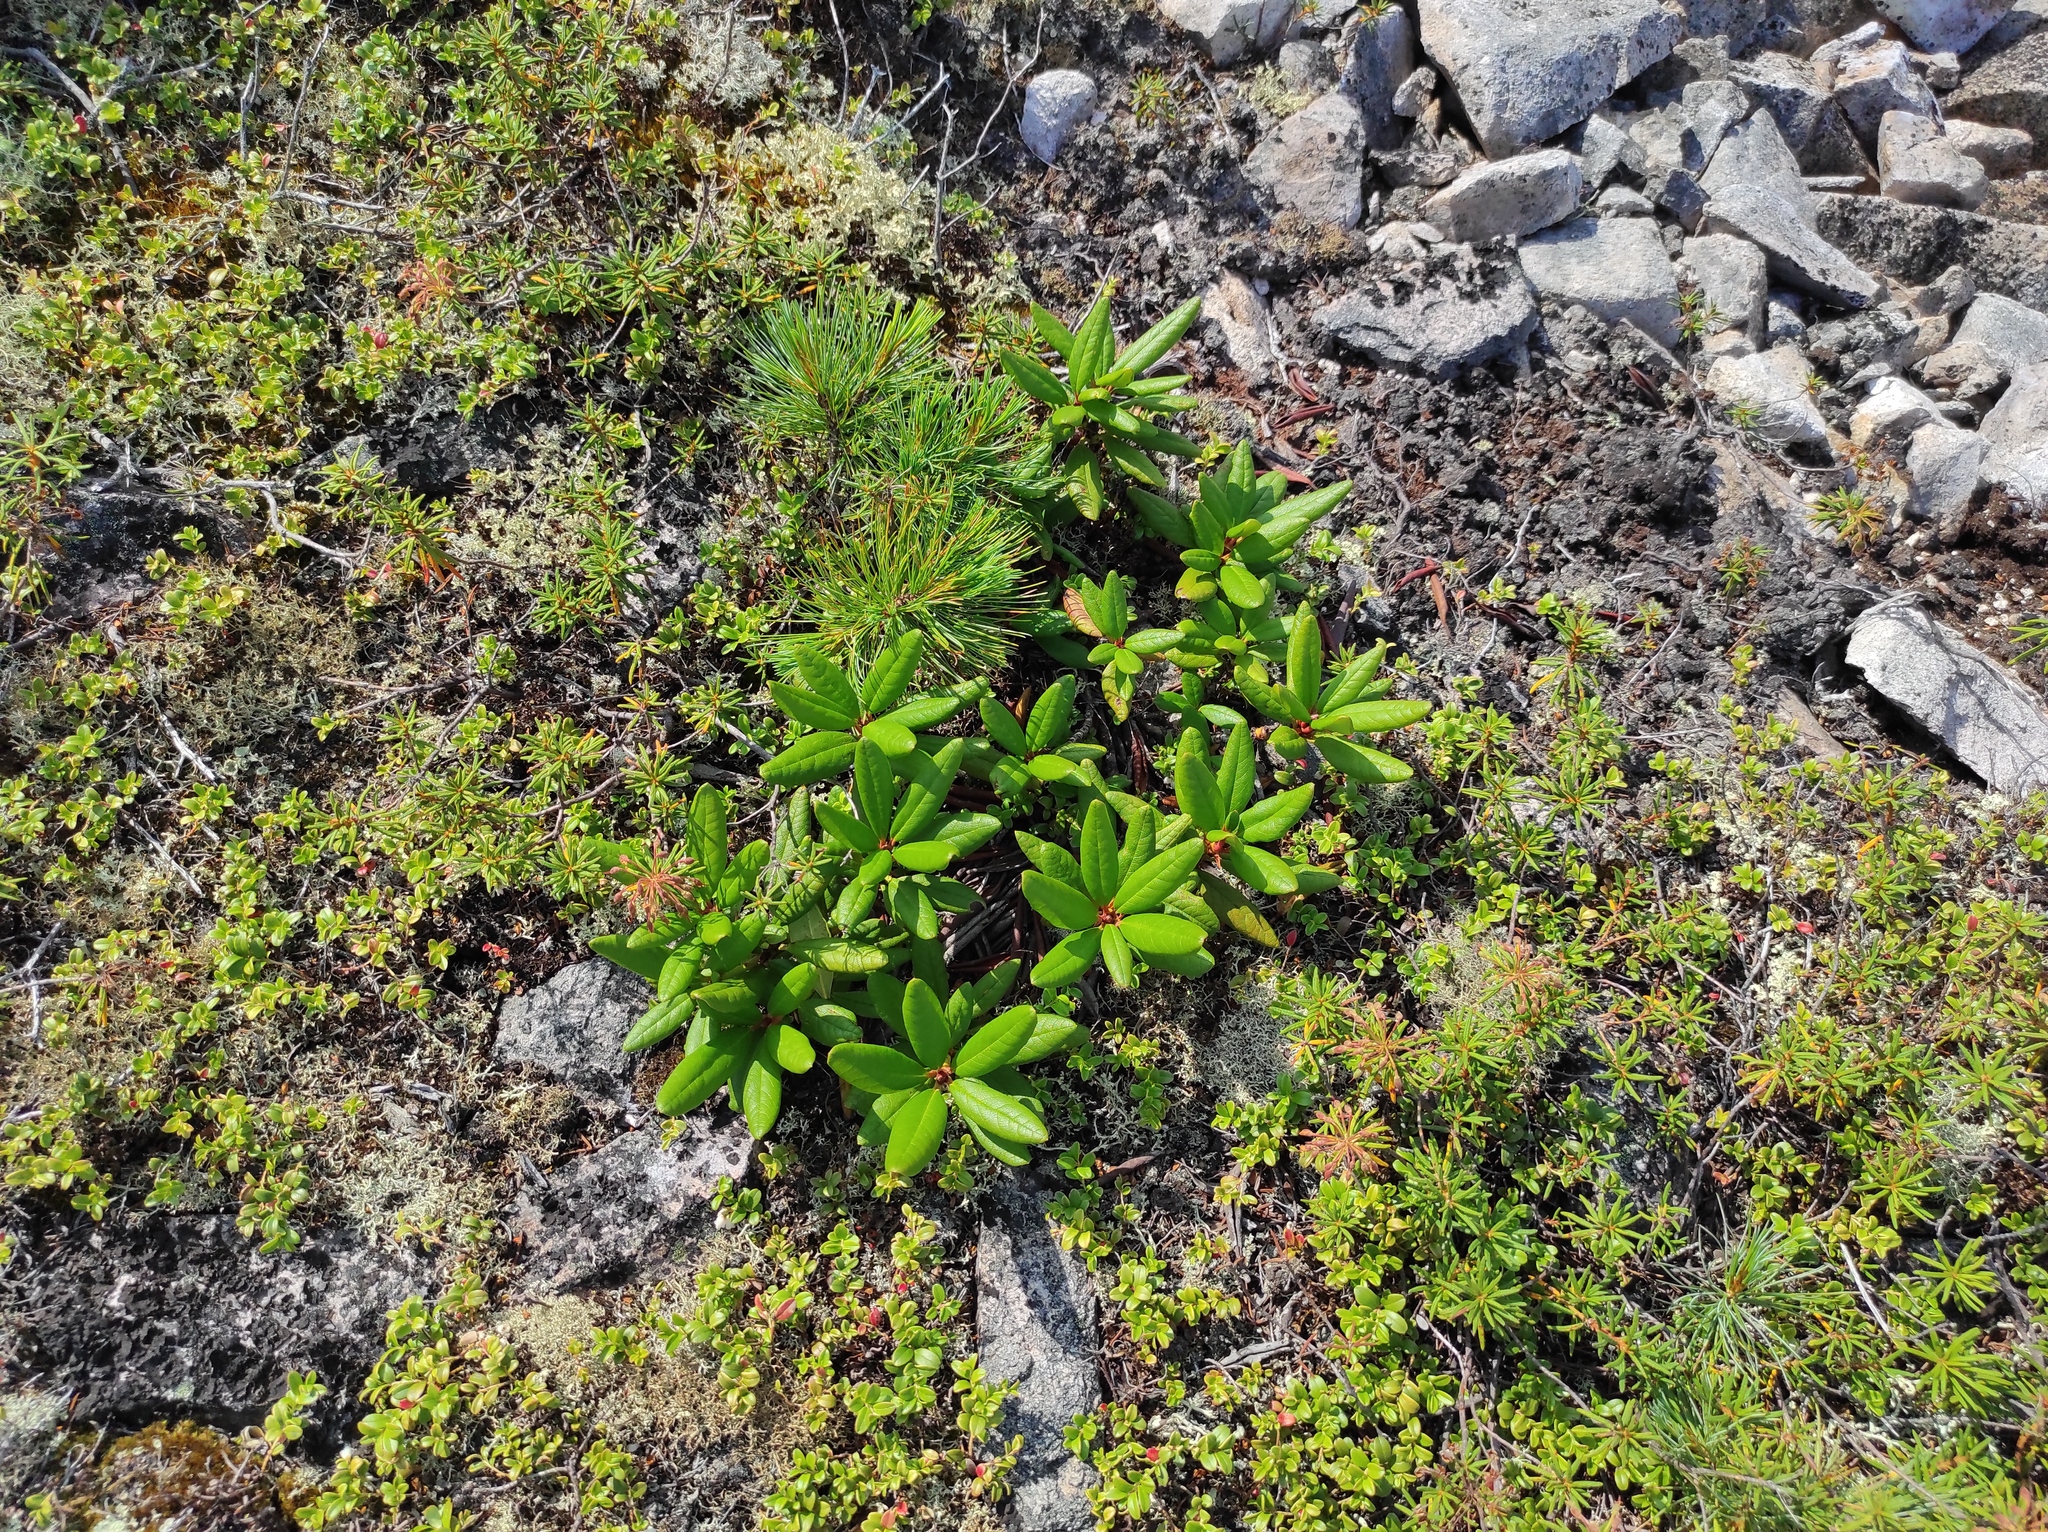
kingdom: Plantae
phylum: Tracheophyta
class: Magnoliopsida
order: Ericales
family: Ericaceae
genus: Vaccinium
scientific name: Vaccinium vitis-idaea
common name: Cowberry
